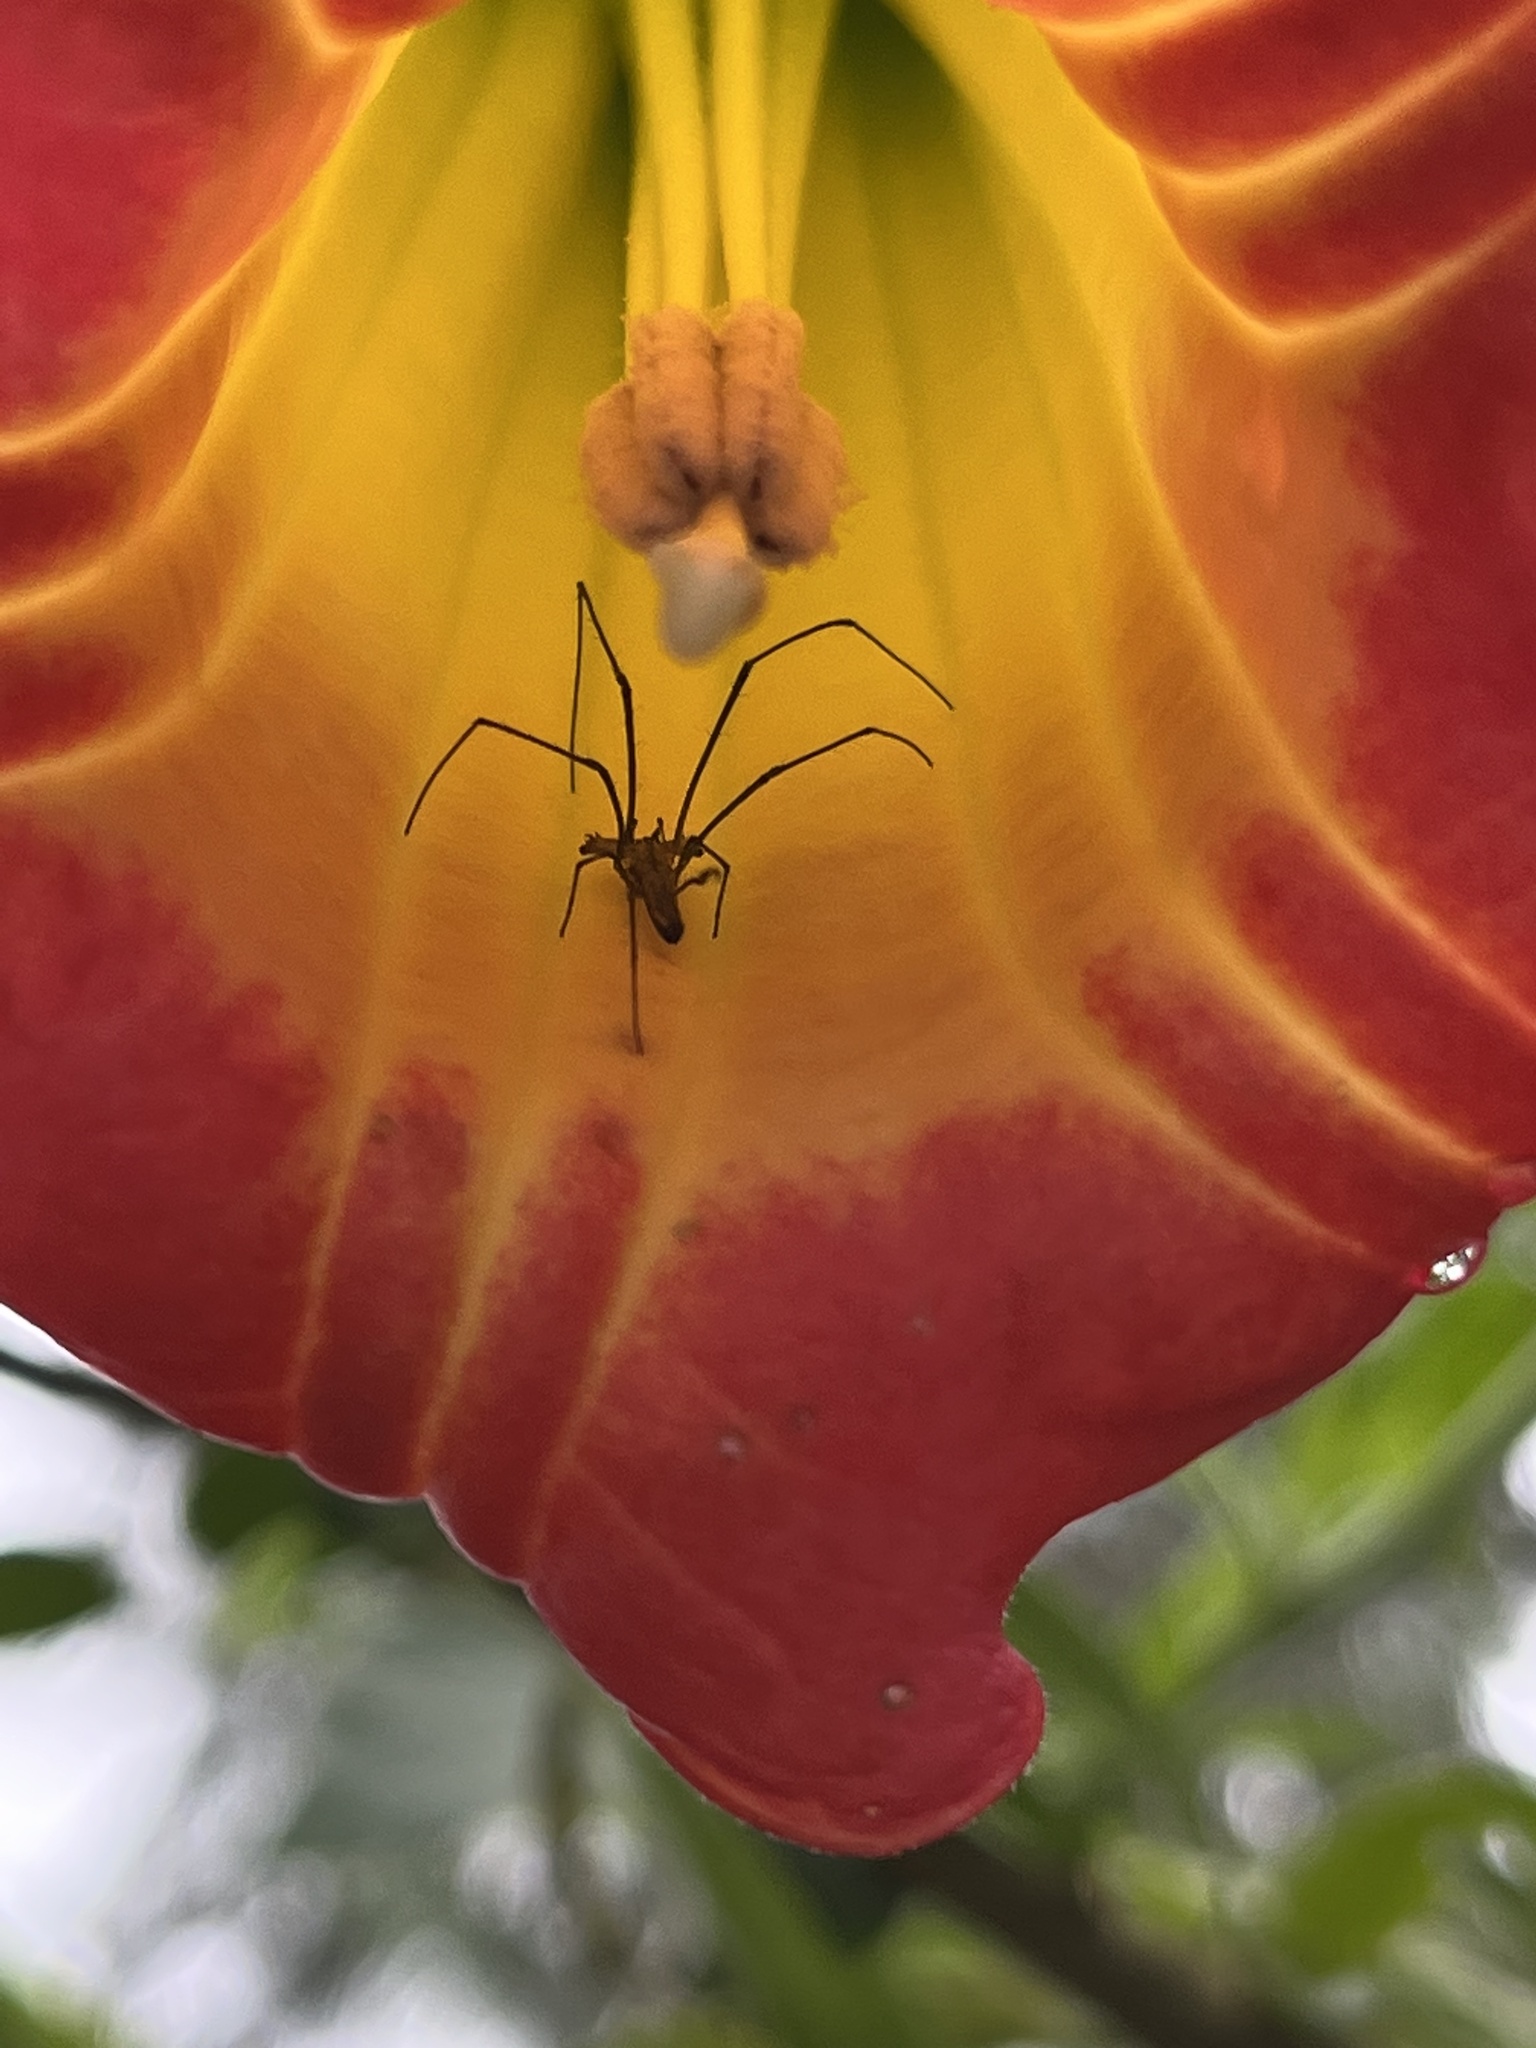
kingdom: Animalia
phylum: Arthropoda
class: Arachnida
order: Araneae
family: Tetragnathidae
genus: Cyrtognatha
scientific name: Cyrtognatha catia
